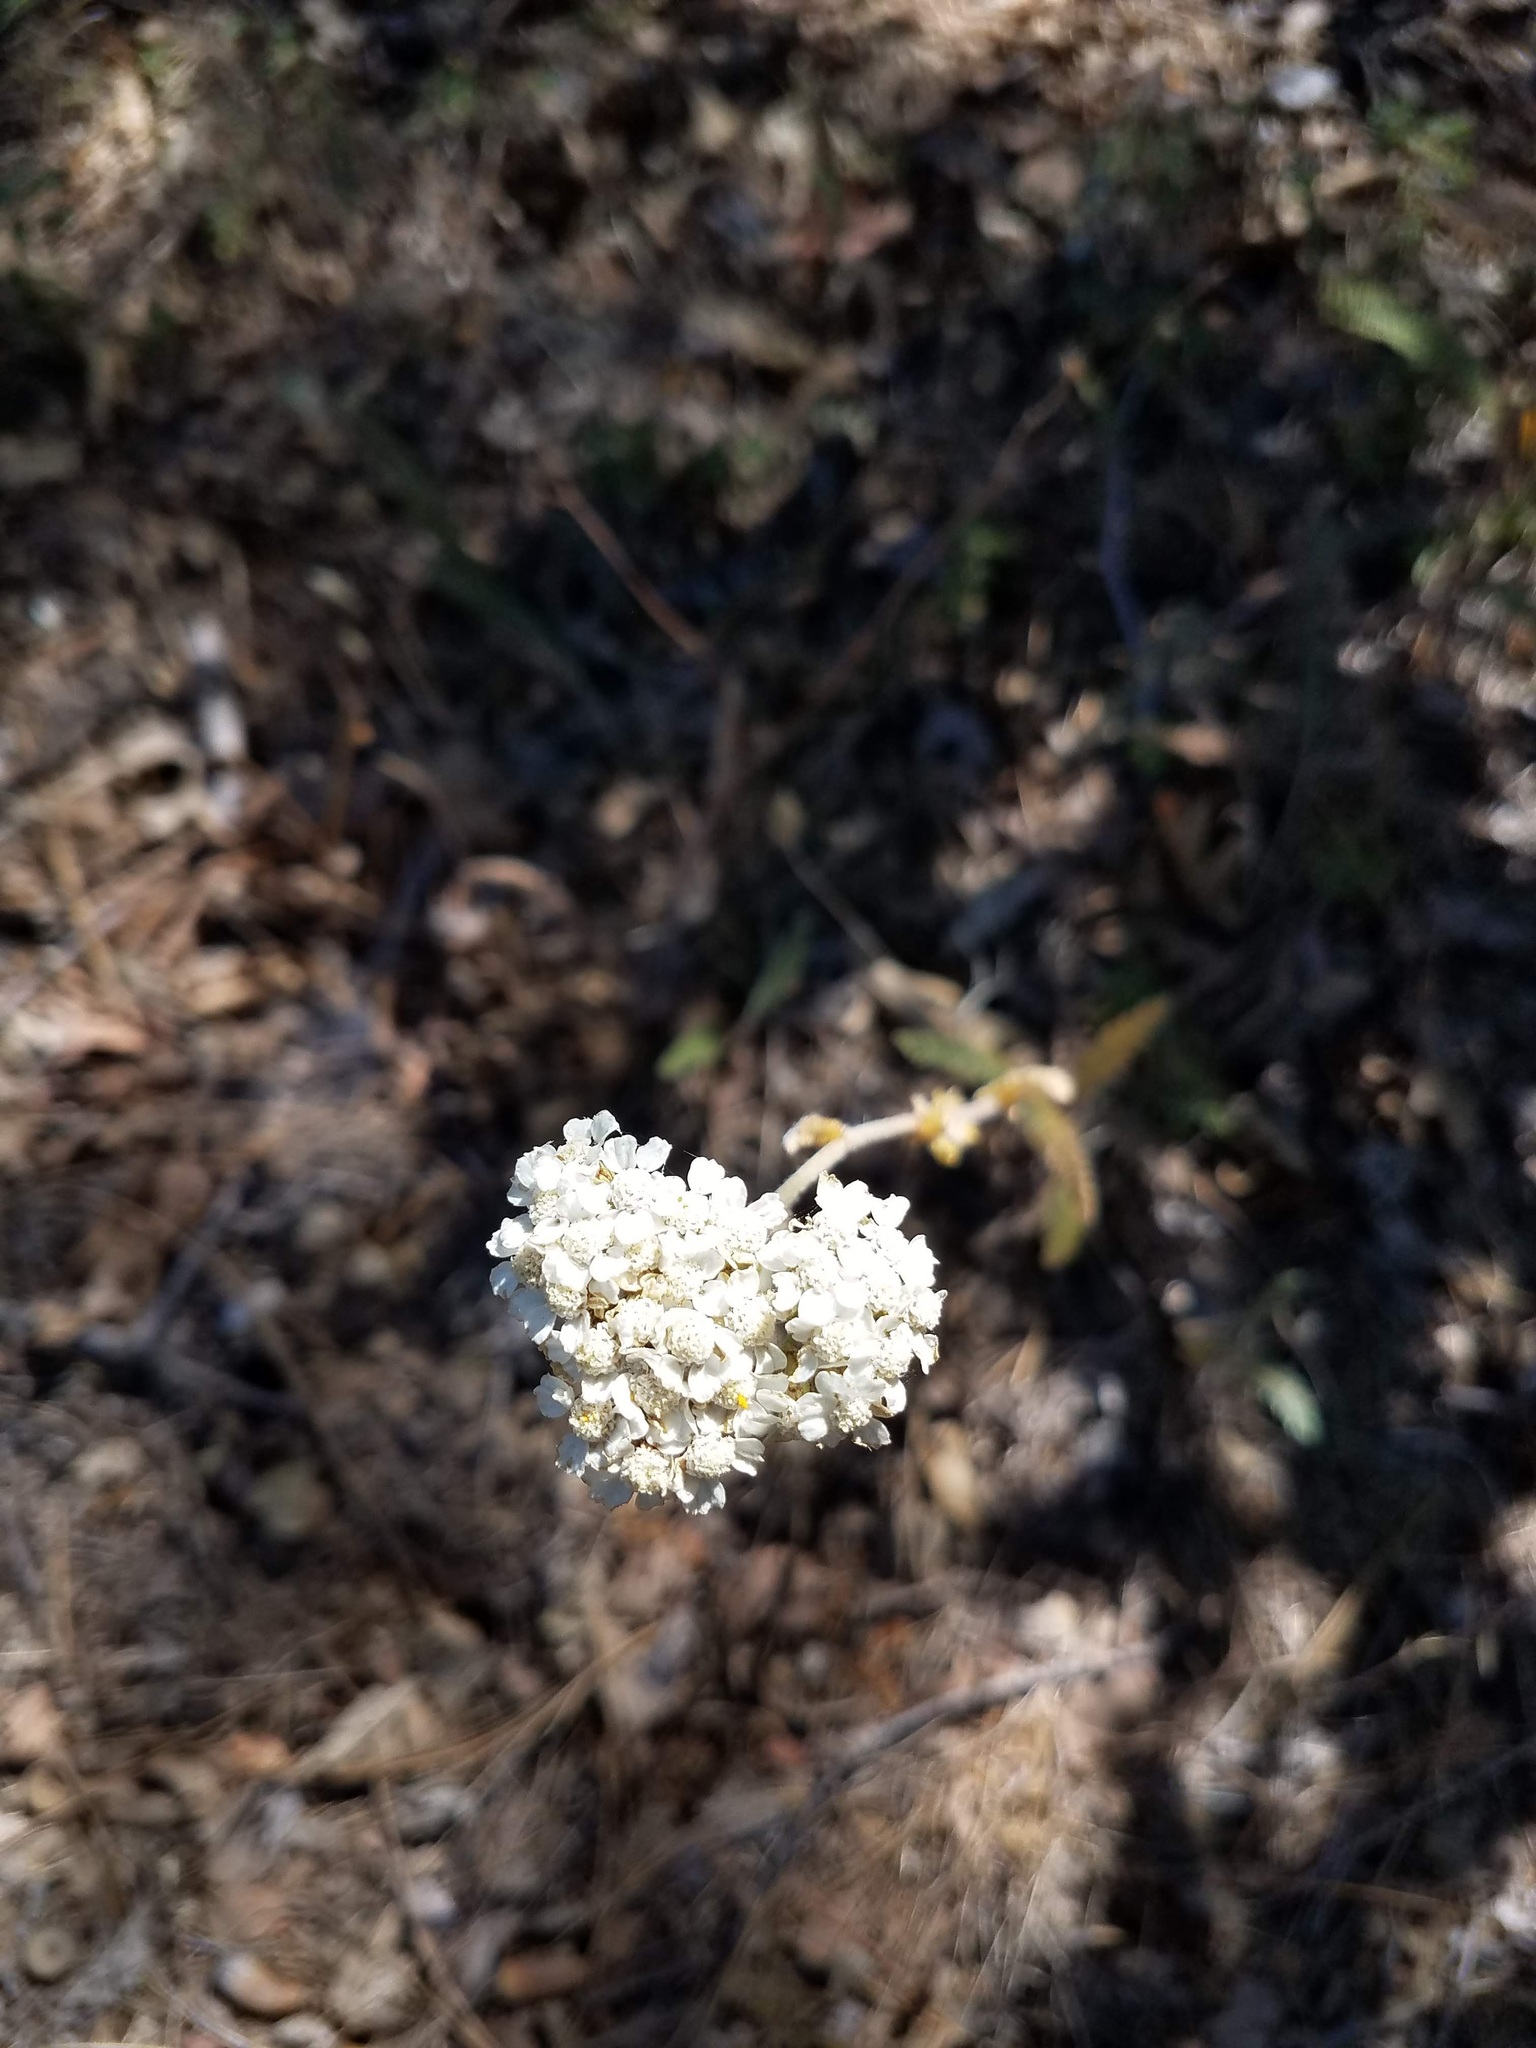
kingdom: Plantae
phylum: Tracheophyta
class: Magnoliopsida
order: Asterales
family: Asteraceae
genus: Achillea
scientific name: Achillea millefolium
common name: Yarrow
